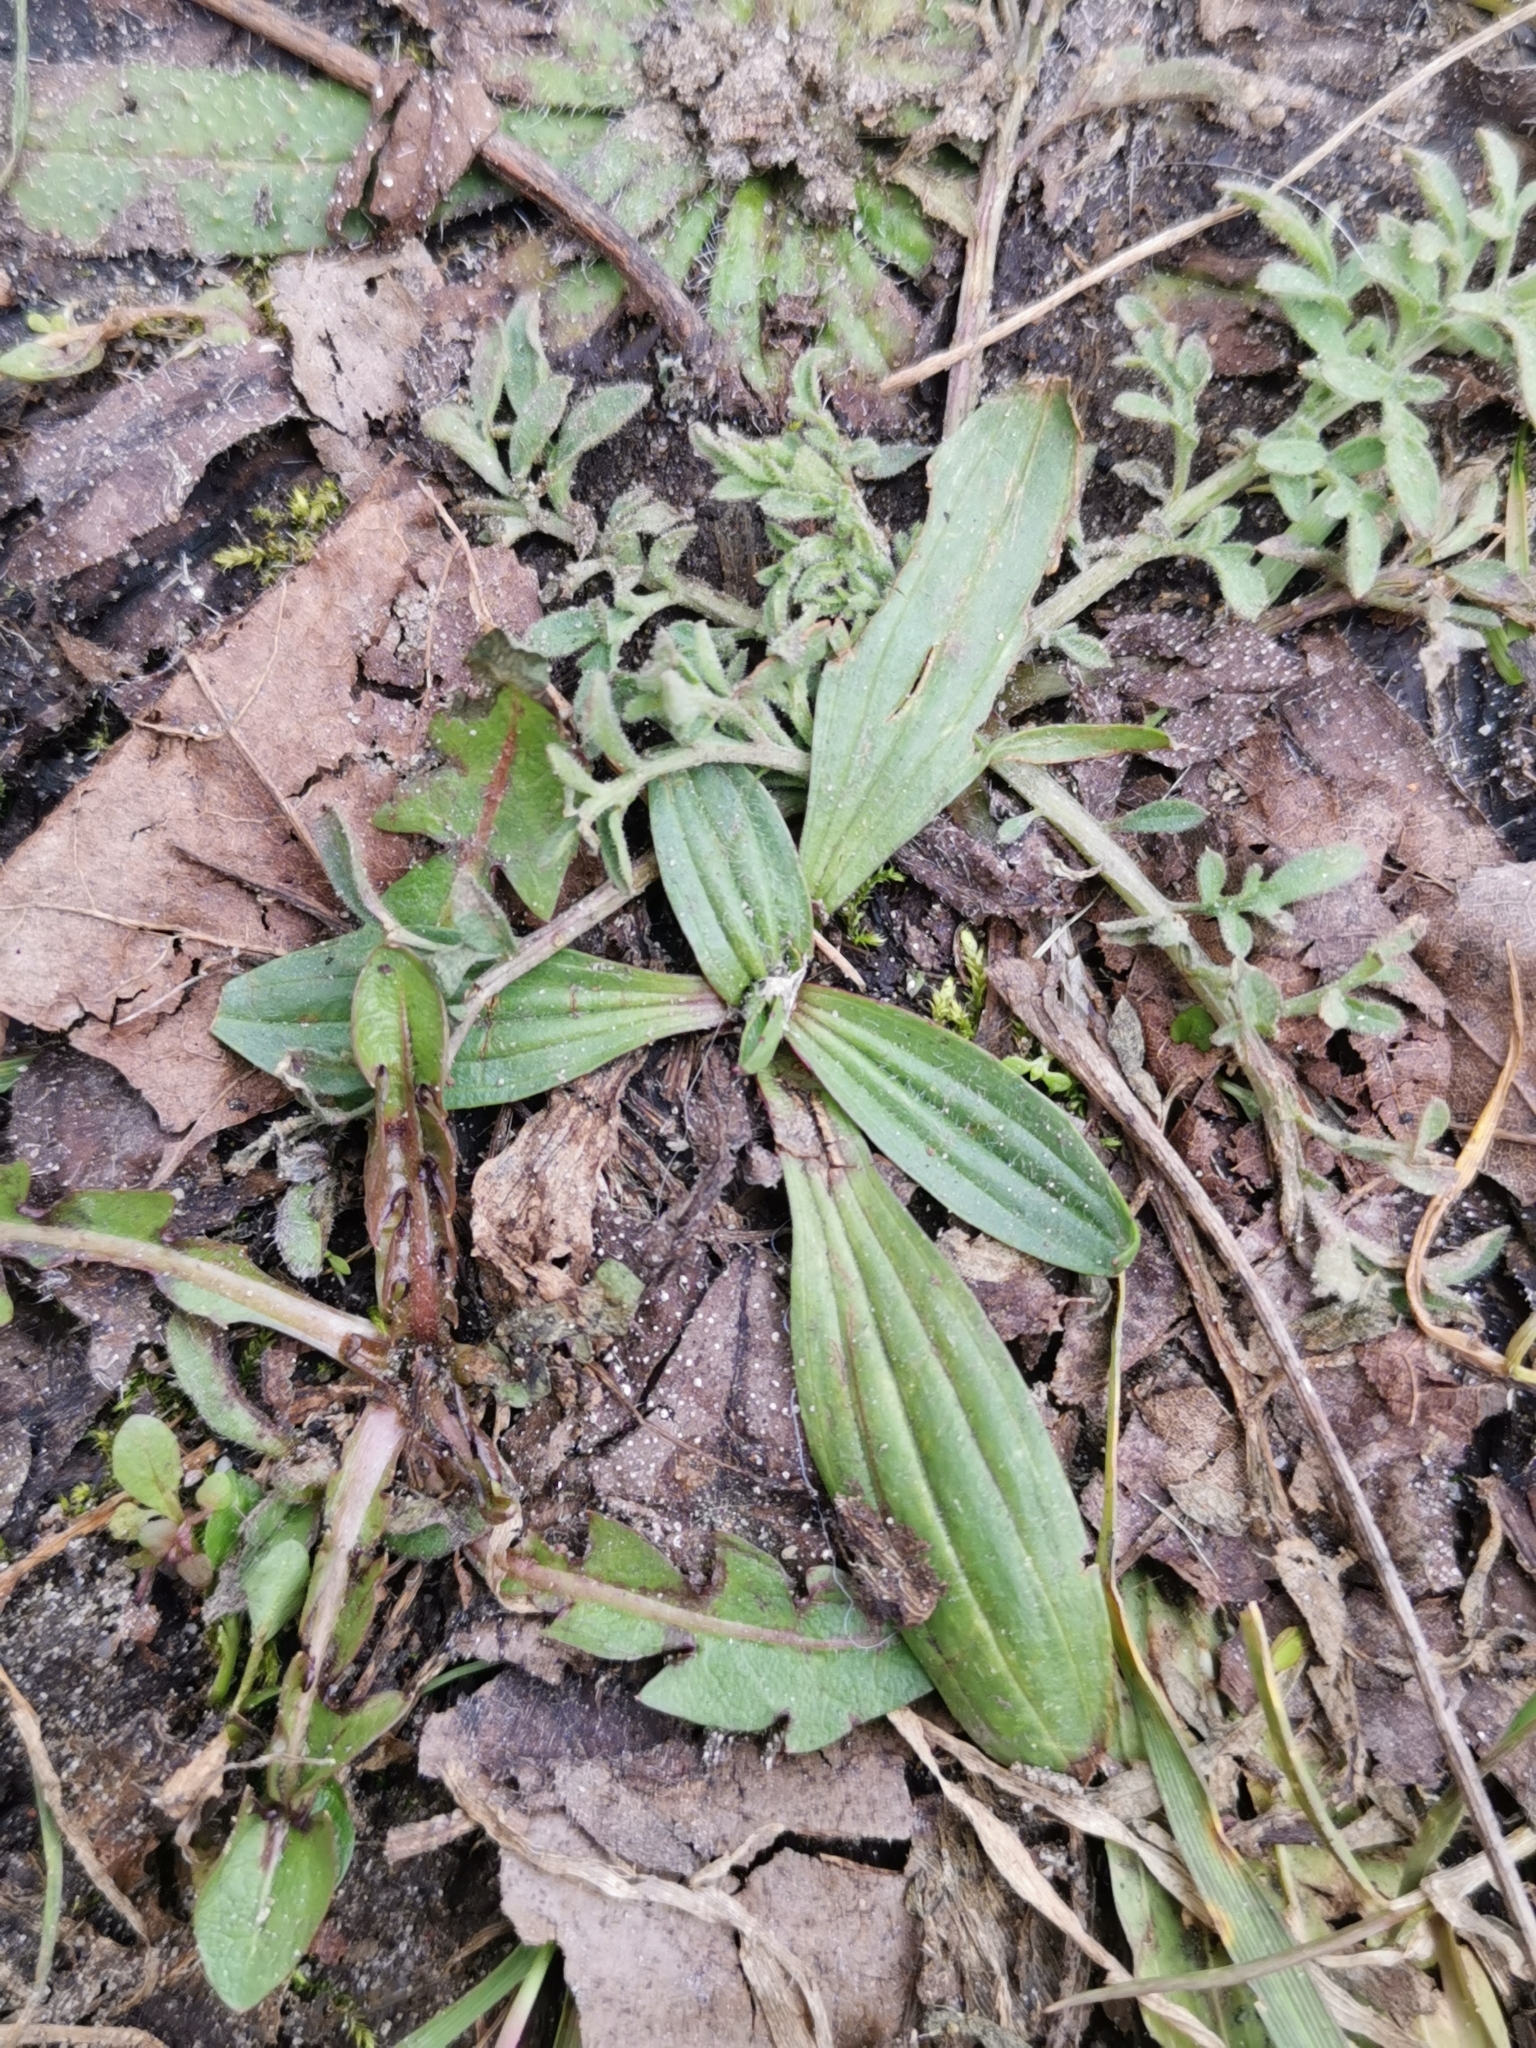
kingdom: Plantae
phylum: Tracheophyta
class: Magnoliopsida
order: Lamiales
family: Plantaginaceae
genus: Plantago
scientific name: Plantago lanceolata
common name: Ribwort plantain
